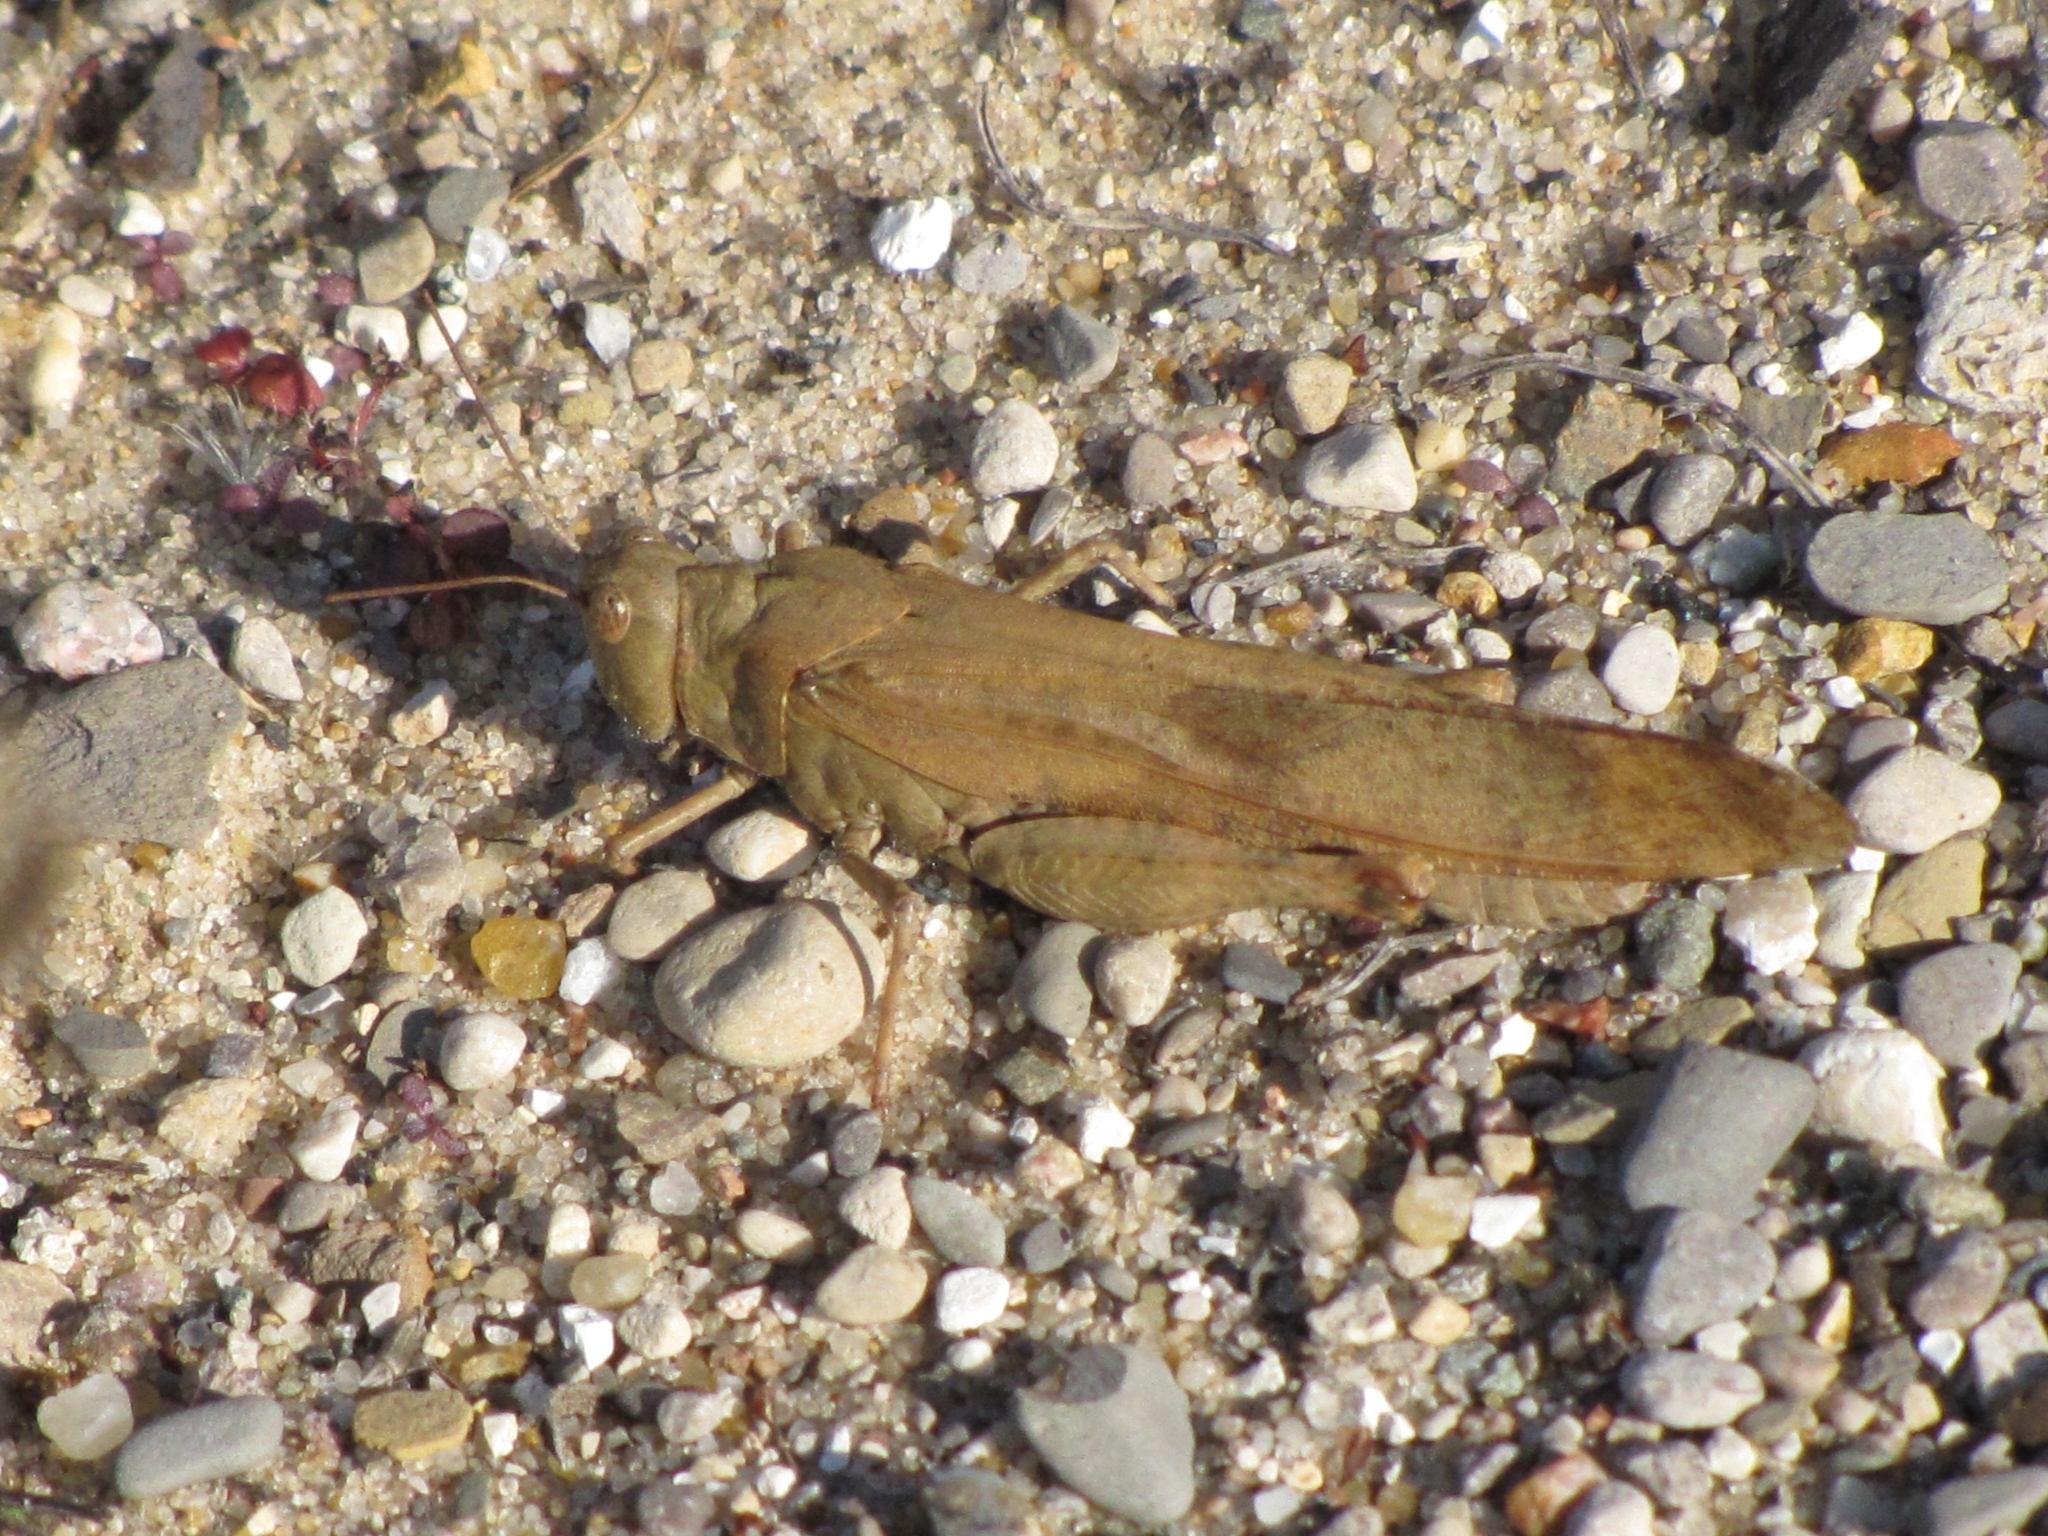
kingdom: Animalia
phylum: Arthropoda
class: Insecta
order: Orthoptera
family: Acrididae
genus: Dissosteira
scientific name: Dissosteira carolina
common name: Carolina grasshopper
